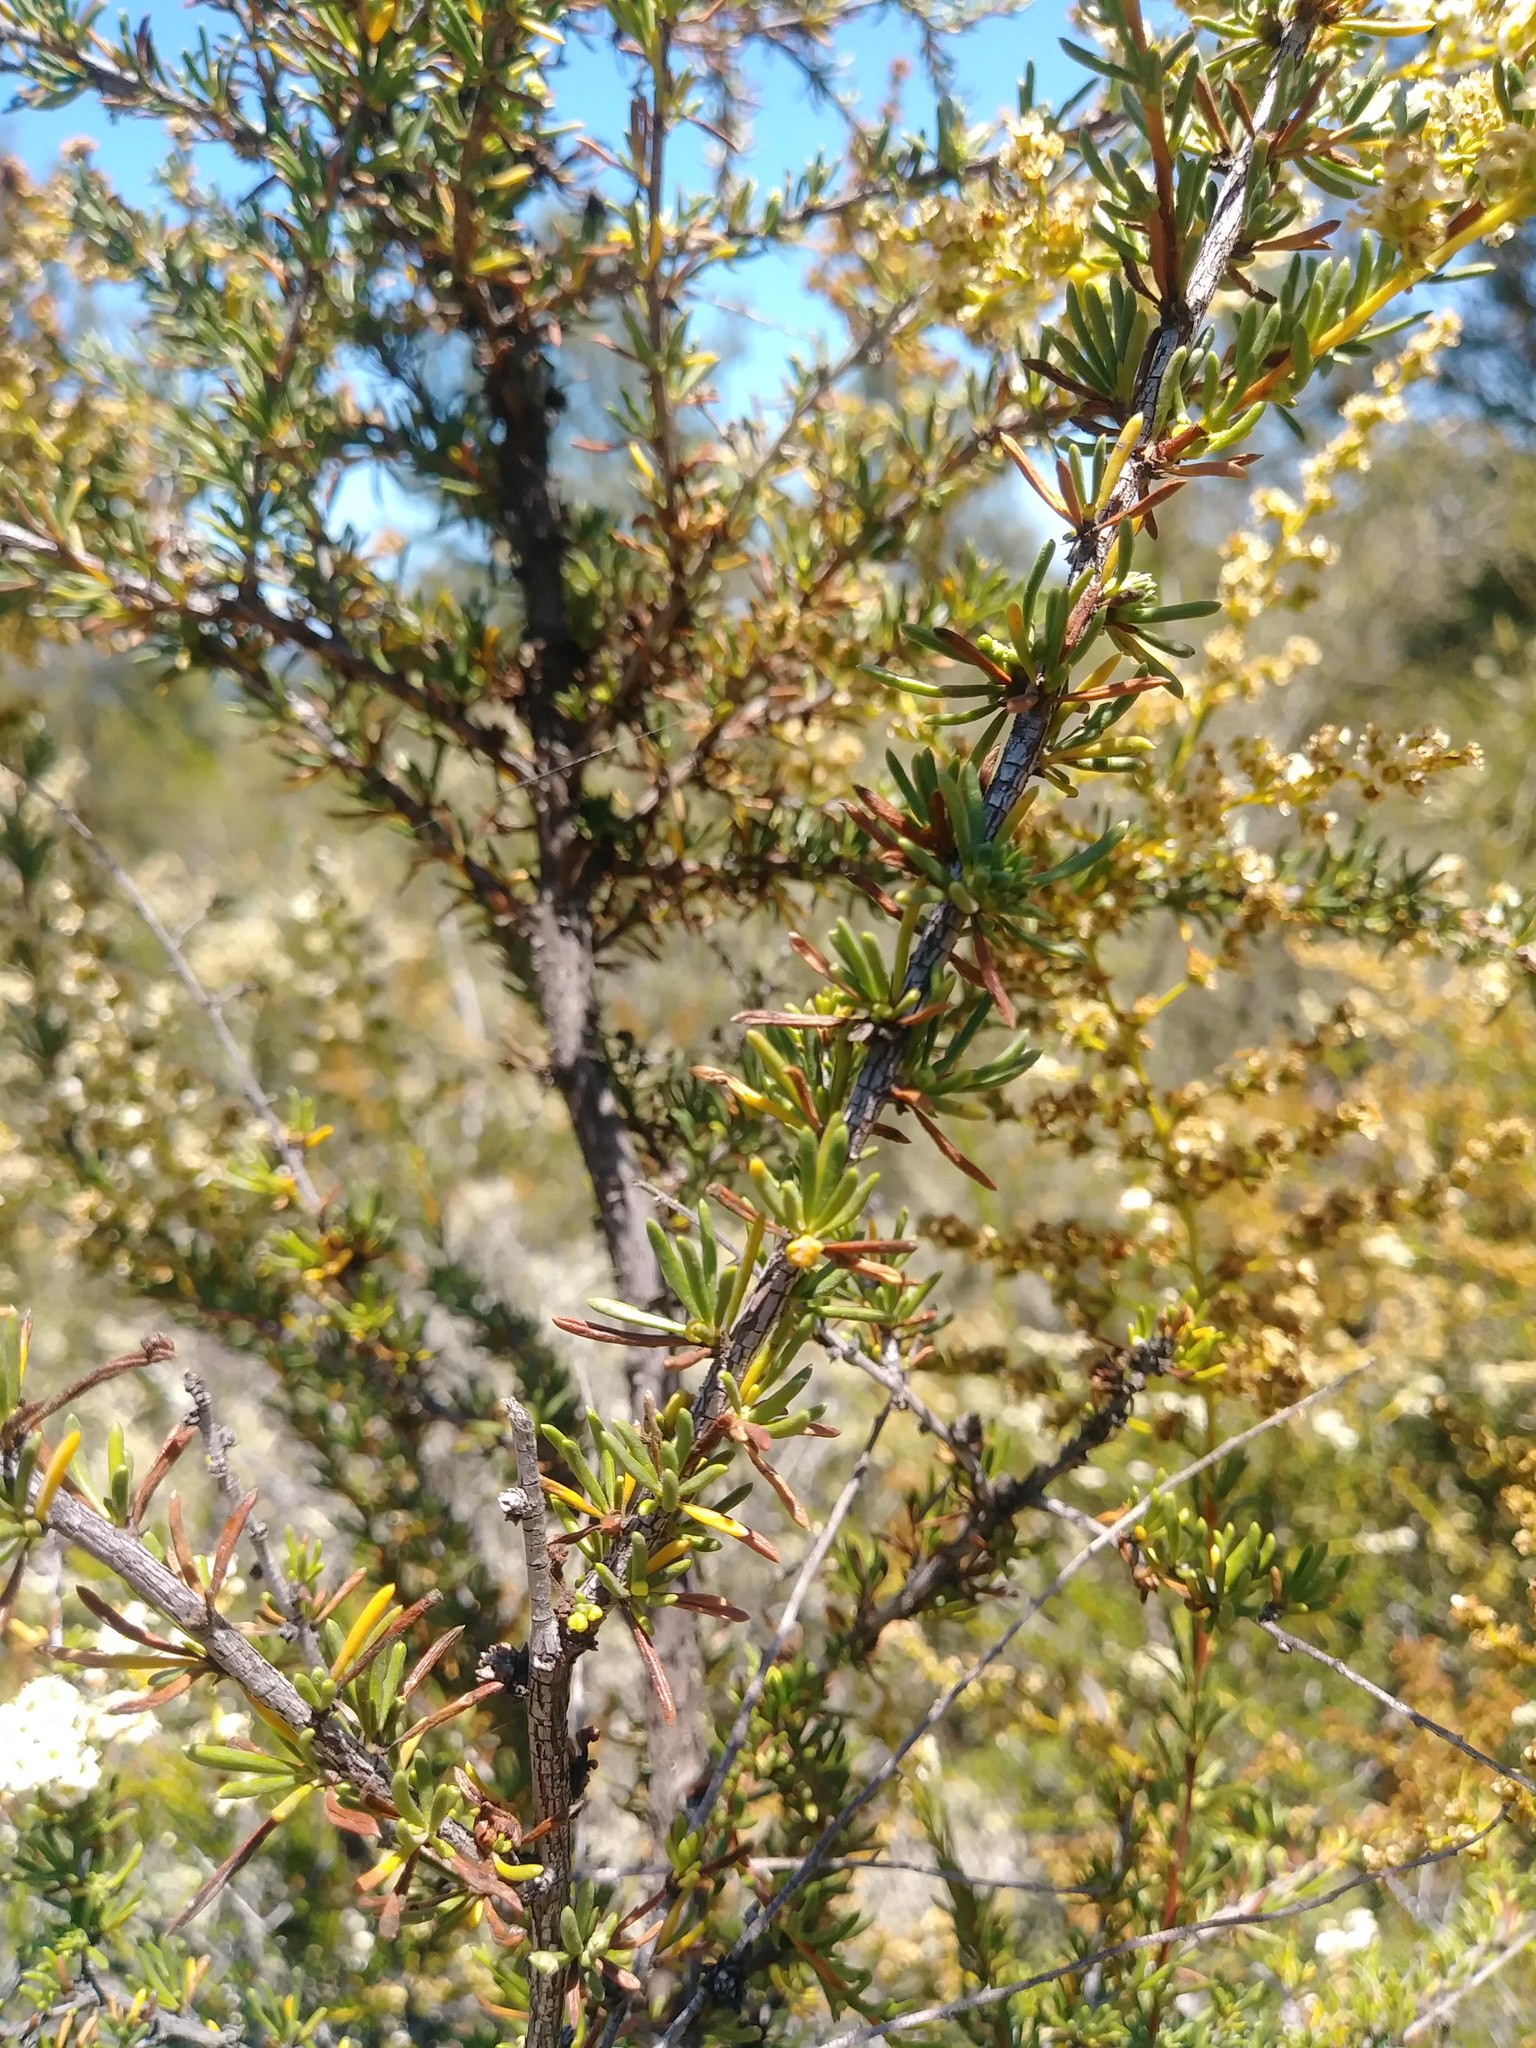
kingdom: Plantae
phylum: Tracheophyta
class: Magnoliopsida
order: Rosales
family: Rosaceae
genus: Adenostoma
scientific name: Adenostoma fasciculatum
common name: Chamise
